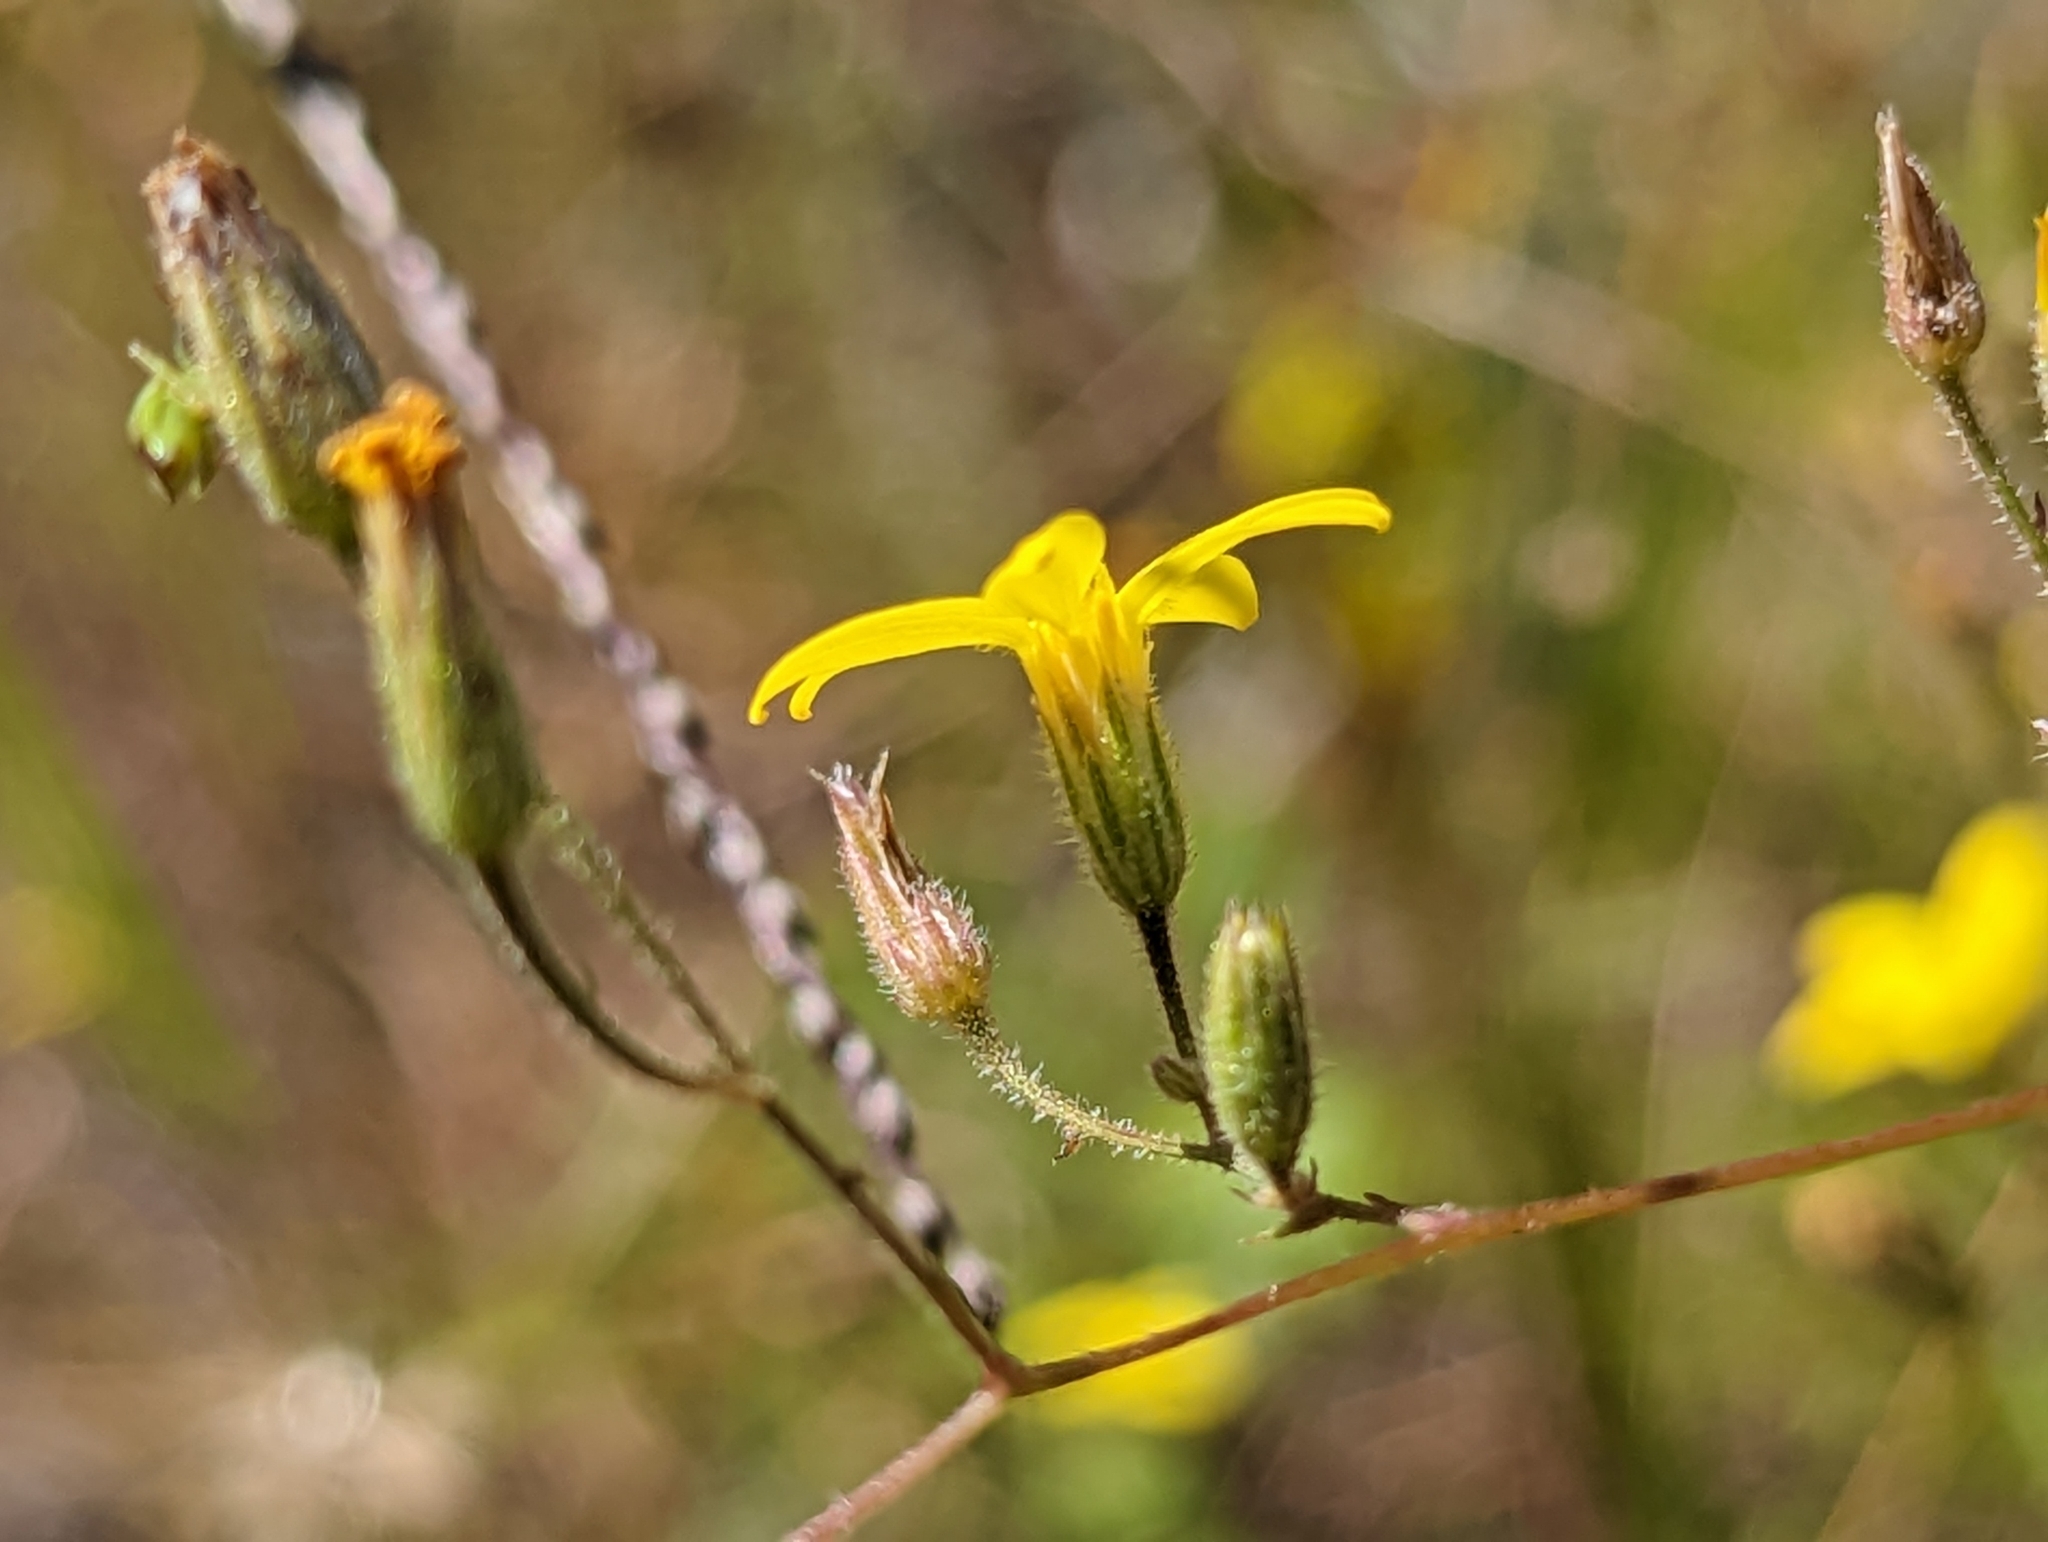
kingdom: Plantae
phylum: Tracheophyta
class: Magnoliopsida
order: Asterales
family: Asteraceae
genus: Croptilon
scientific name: Croptilon divaricatum
